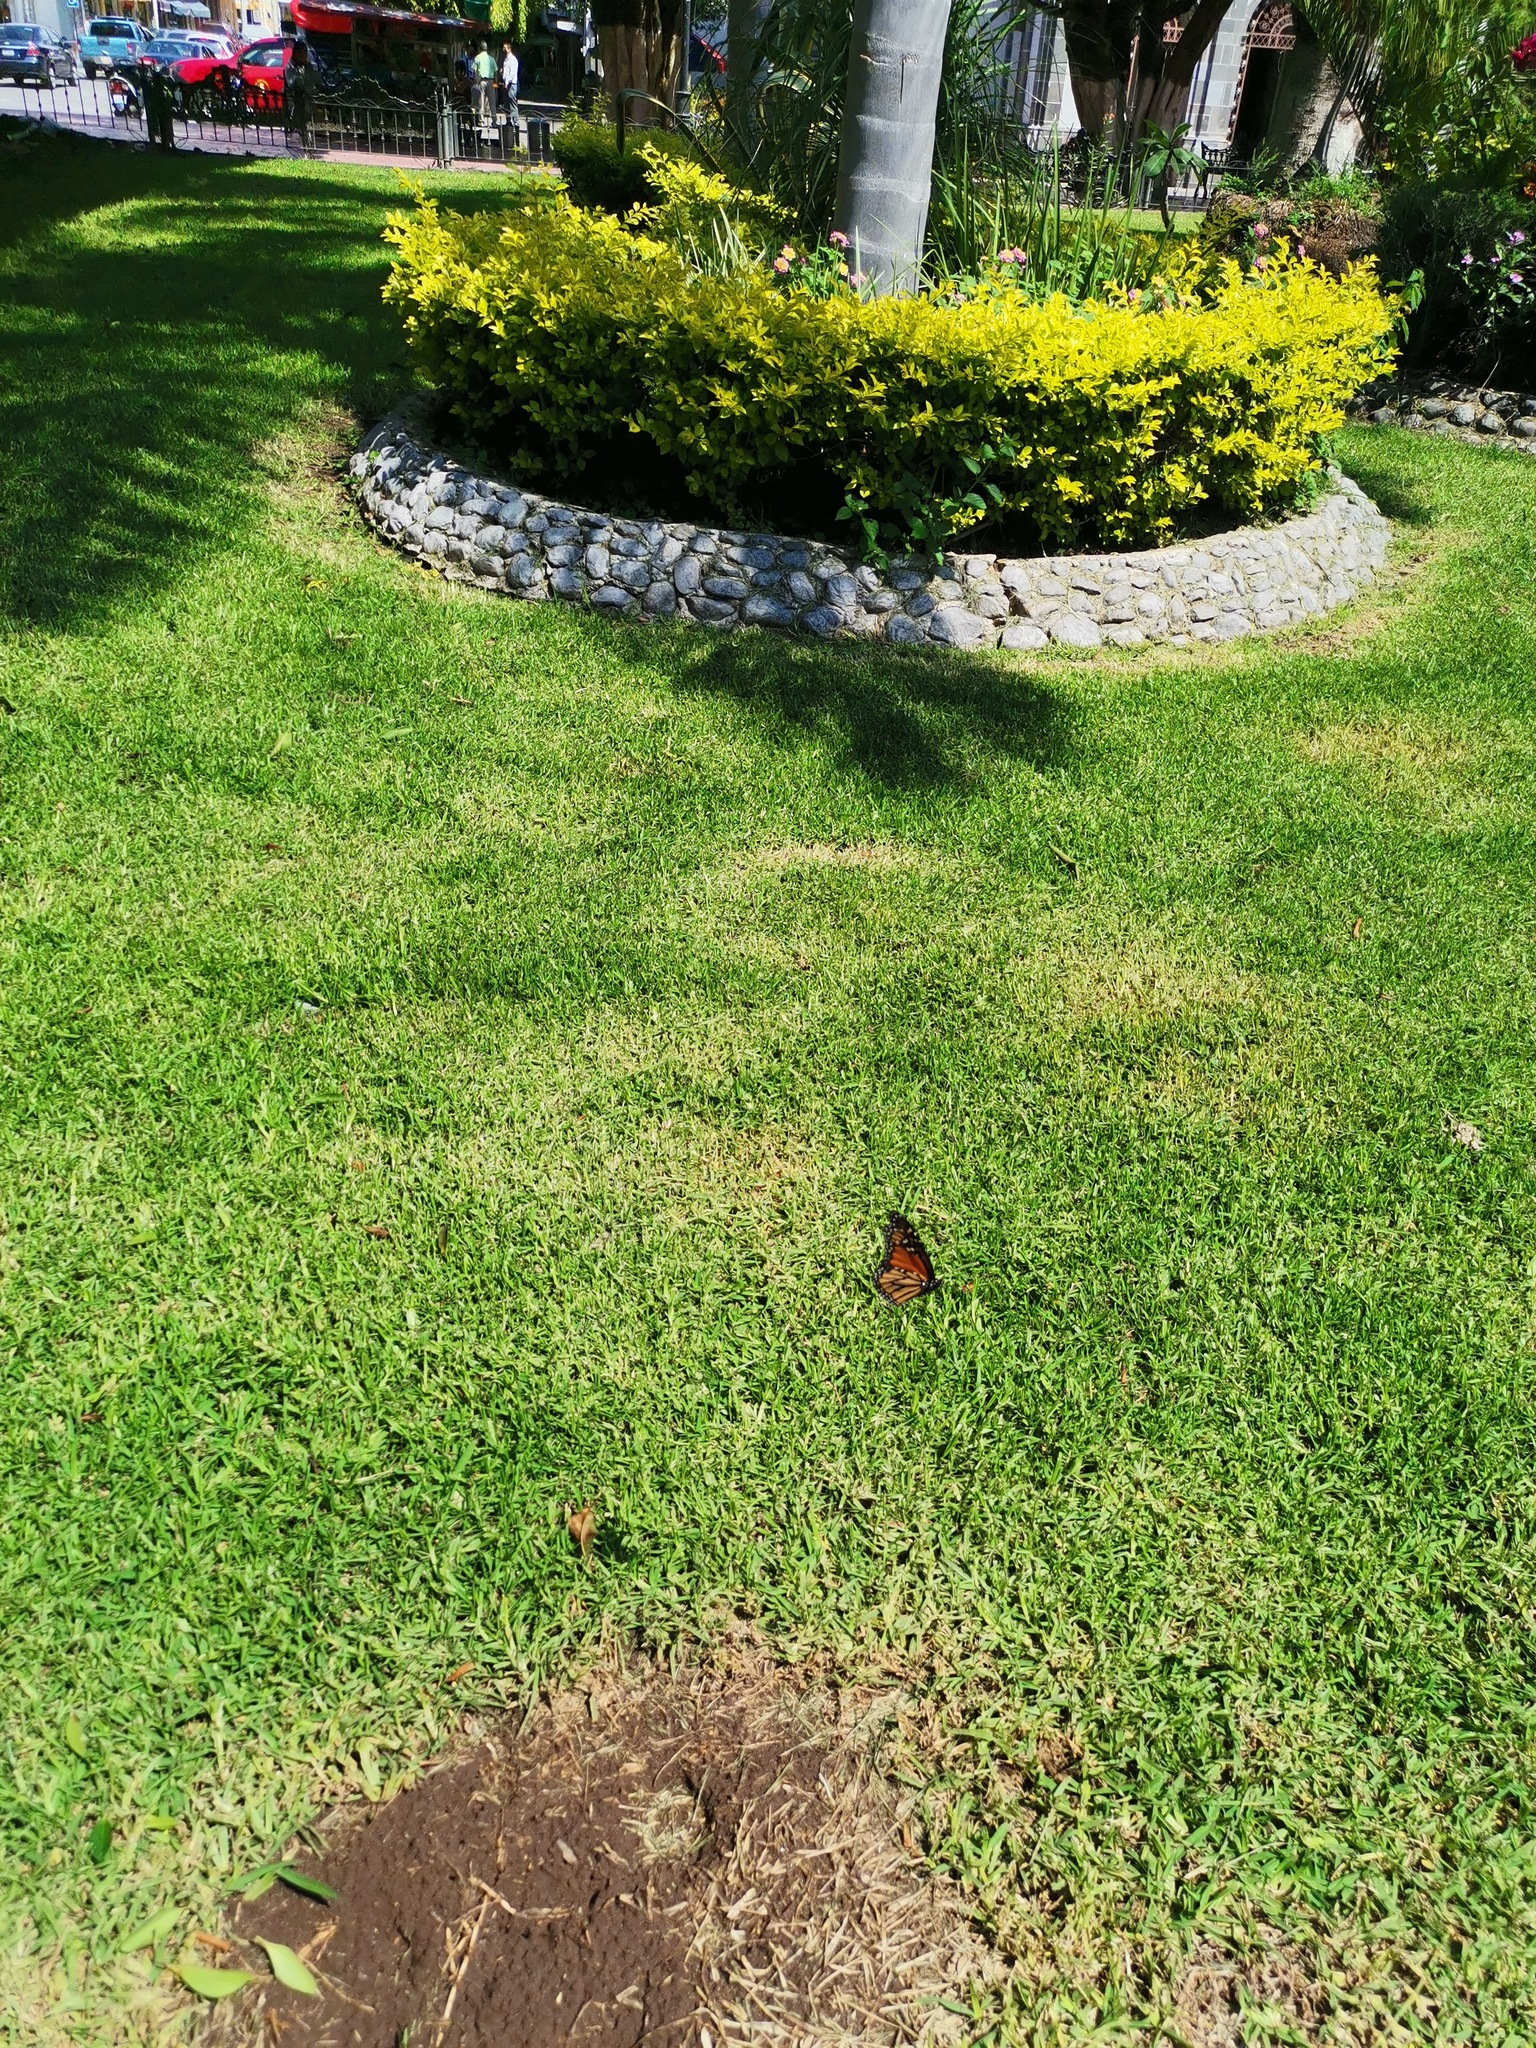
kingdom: Animalia
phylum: Arthropoda
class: Insecta
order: Lepidoptera
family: Nymphalidae
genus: Danaus
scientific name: Danaus plexippus
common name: Monarch
